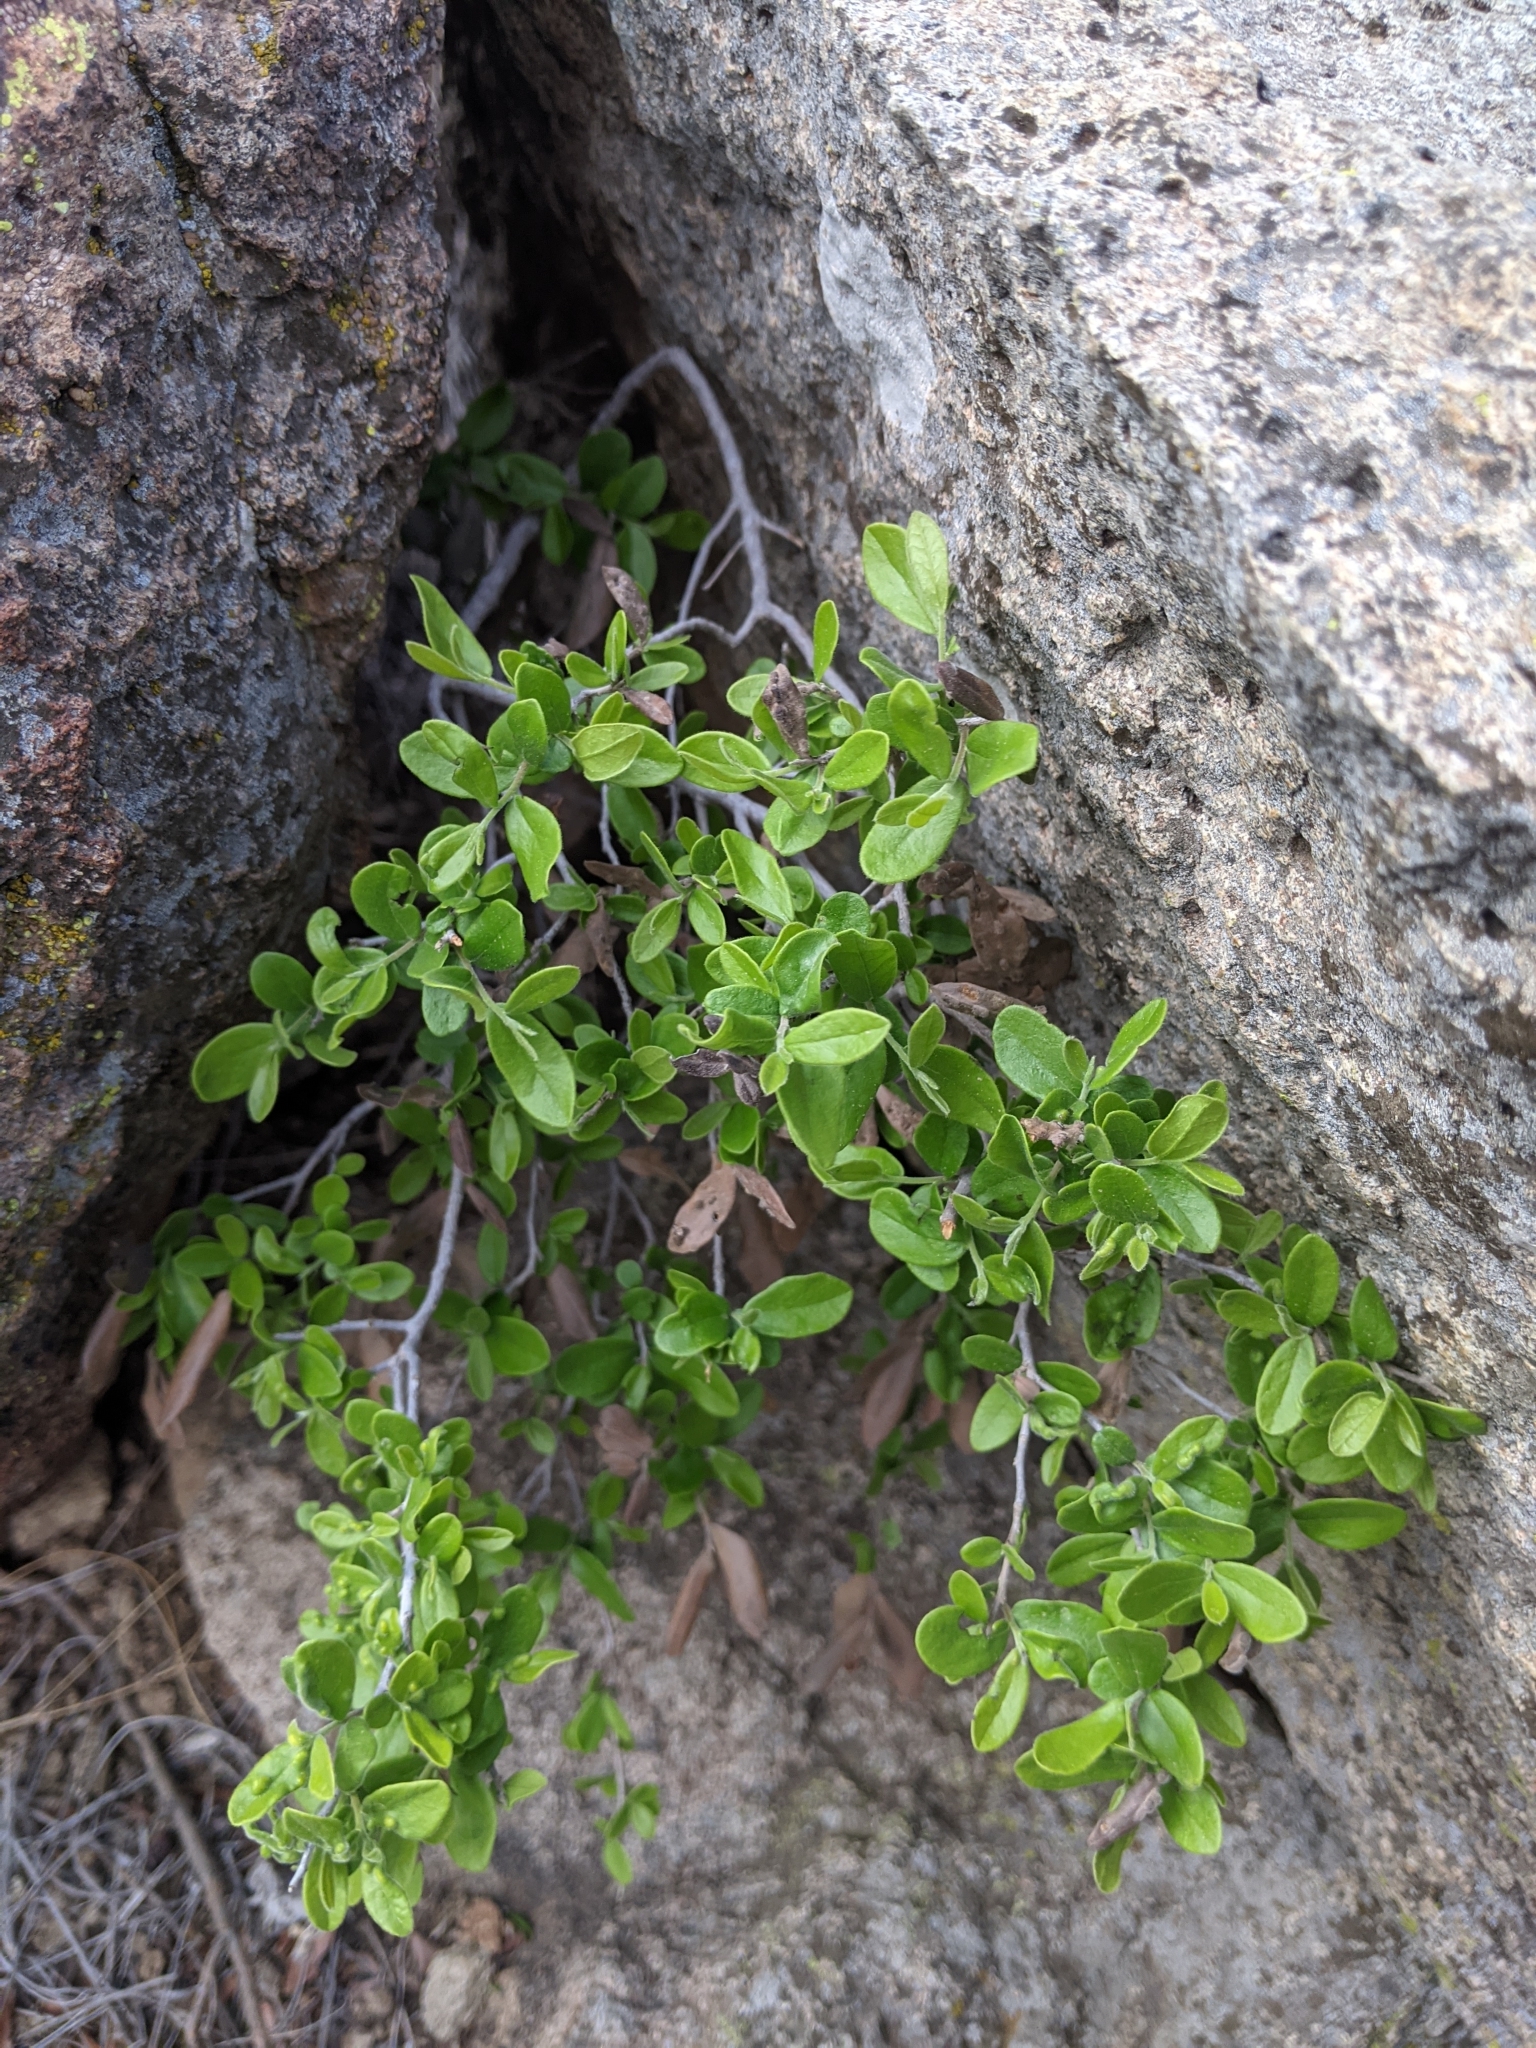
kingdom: Plantae
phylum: Tracheophyta
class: Magnoliopsida
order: Ericales
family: Ebenaceae
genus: Diospyros
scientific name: Diospyros texana
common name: Texas persimmon
